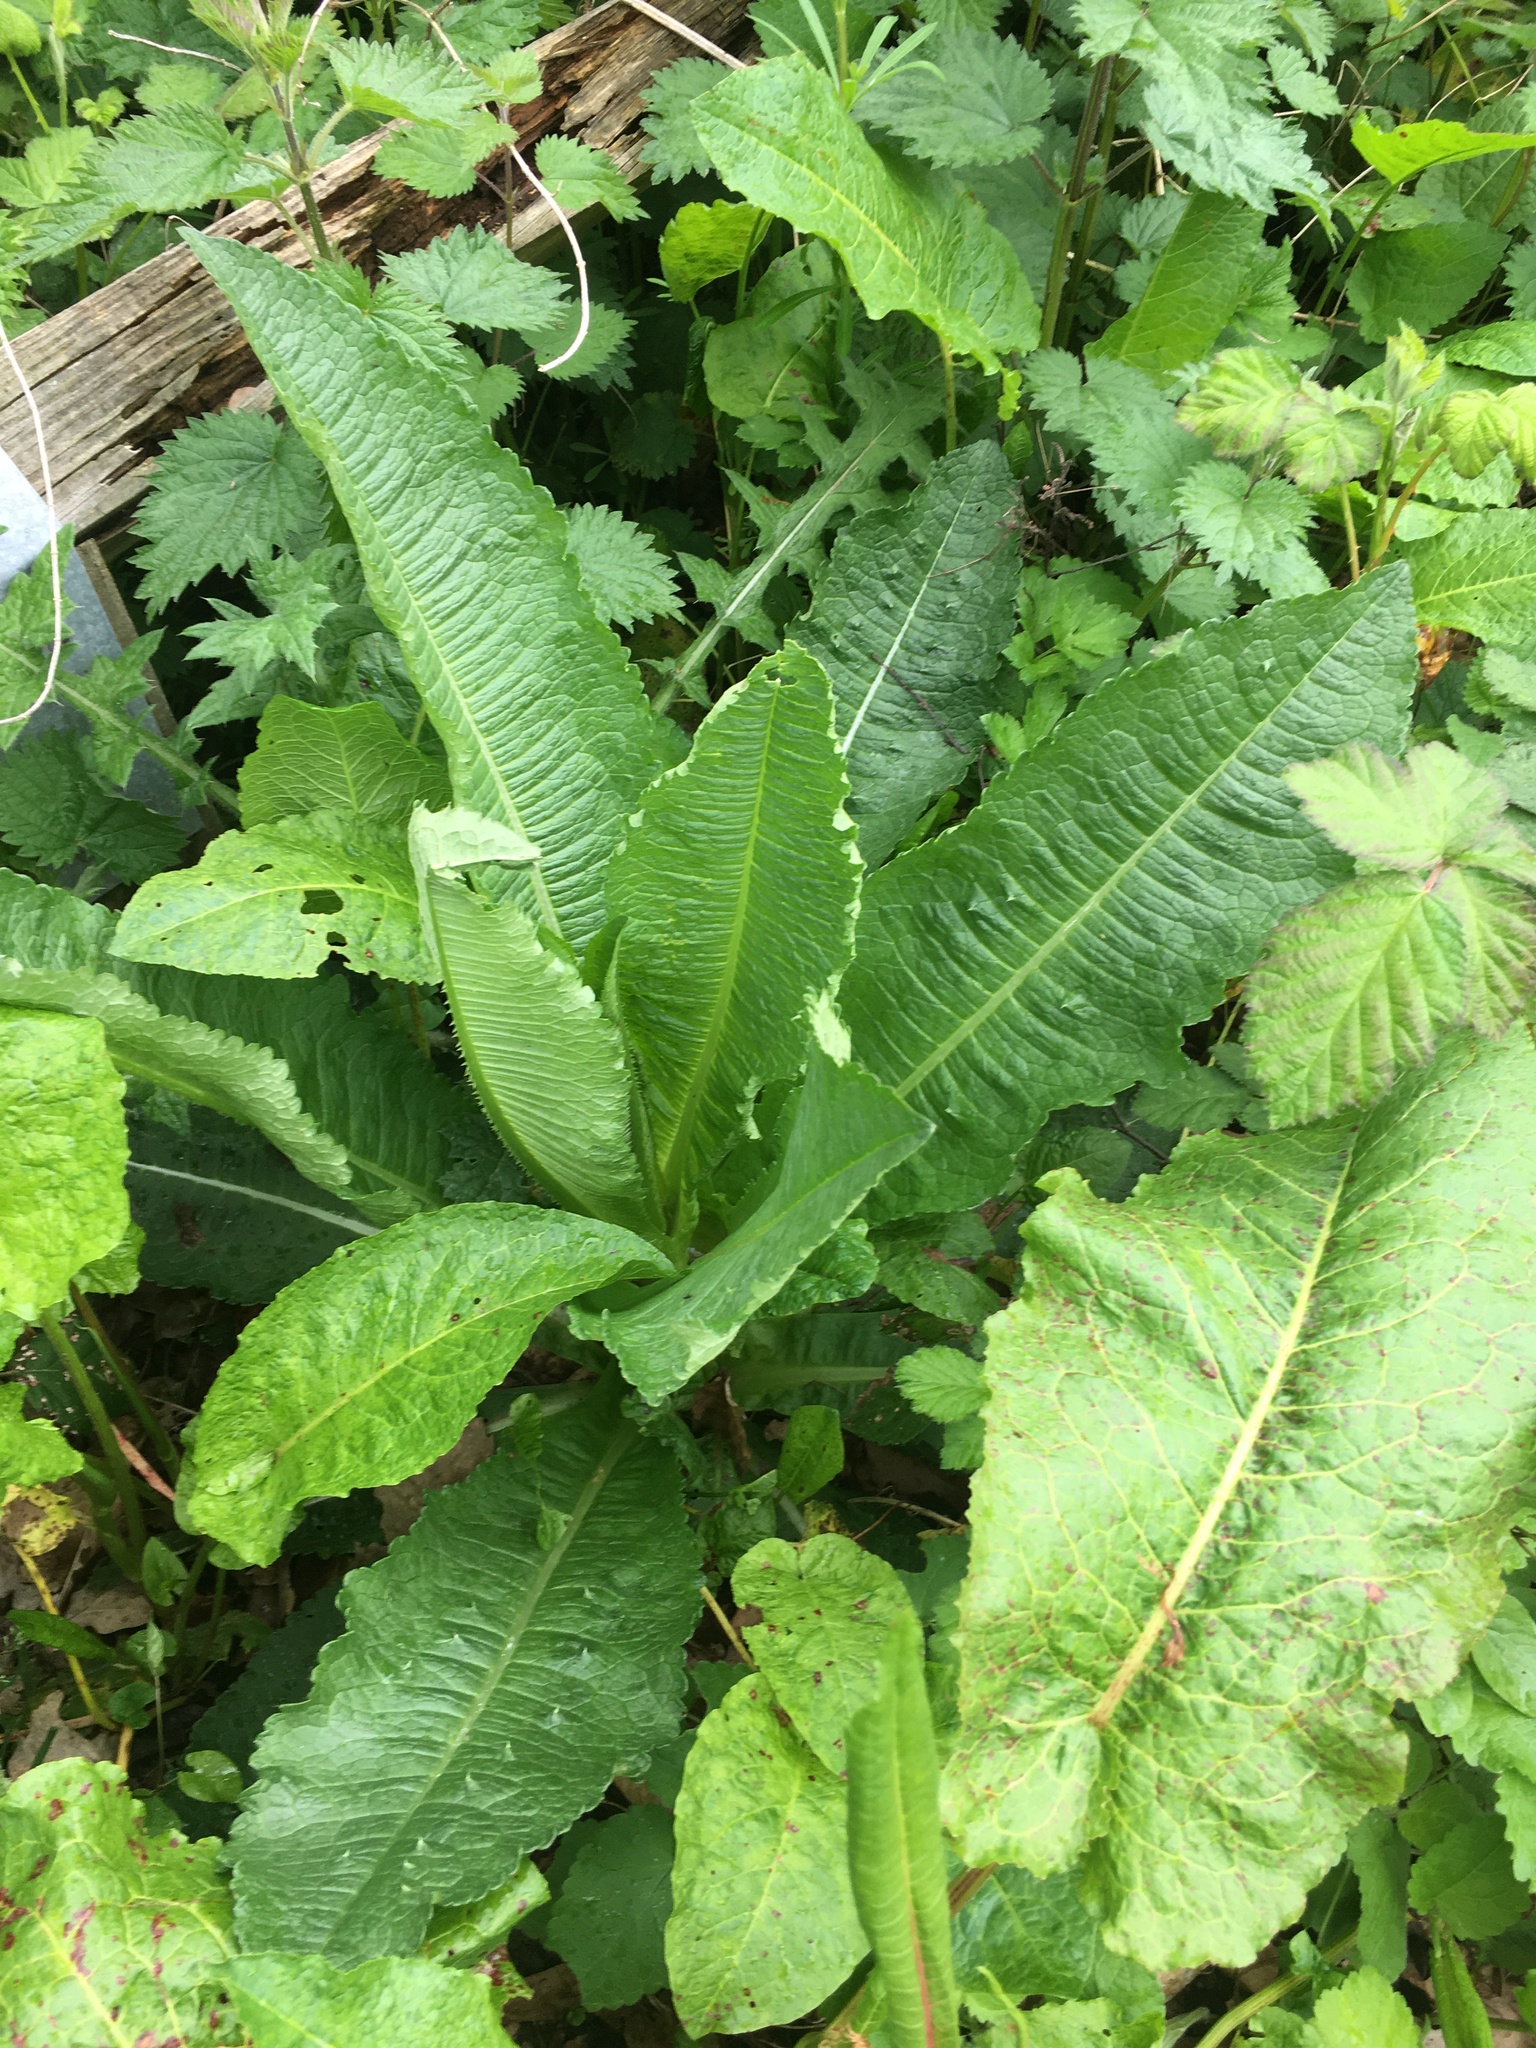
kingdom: Plantae
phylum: Tracheophyta
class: Magnoliopsida
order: Dipsacales
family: Caprifoliaceae
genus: Dipsacus
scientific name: Dipsacus fullonum
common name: Teasel
